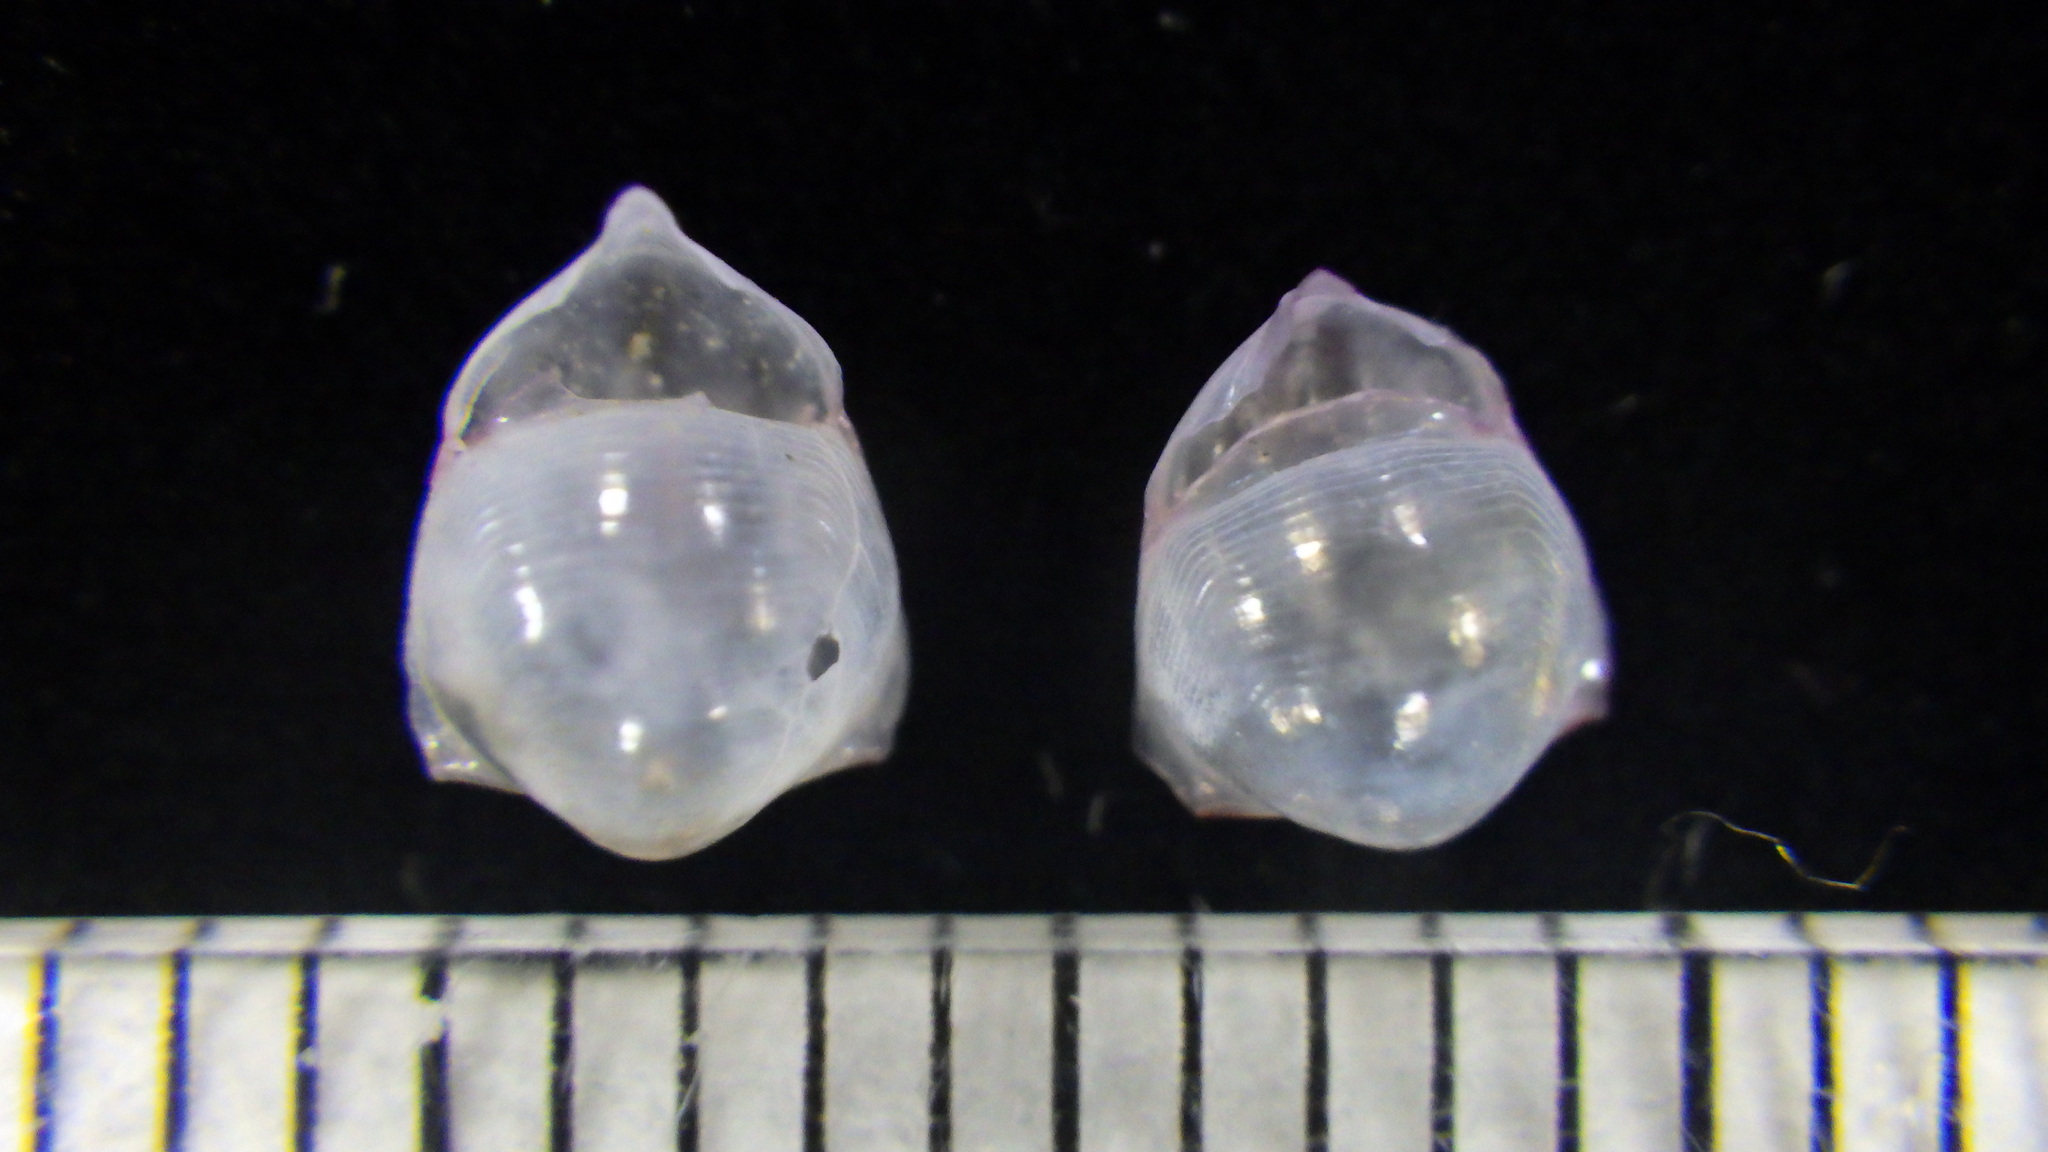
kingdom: Animalia
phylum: Mollusca
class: Gastropoda
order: Pteropoda
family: Cavoliniidae
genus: Diacavolinia
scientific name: Diacavolinia longirostris
